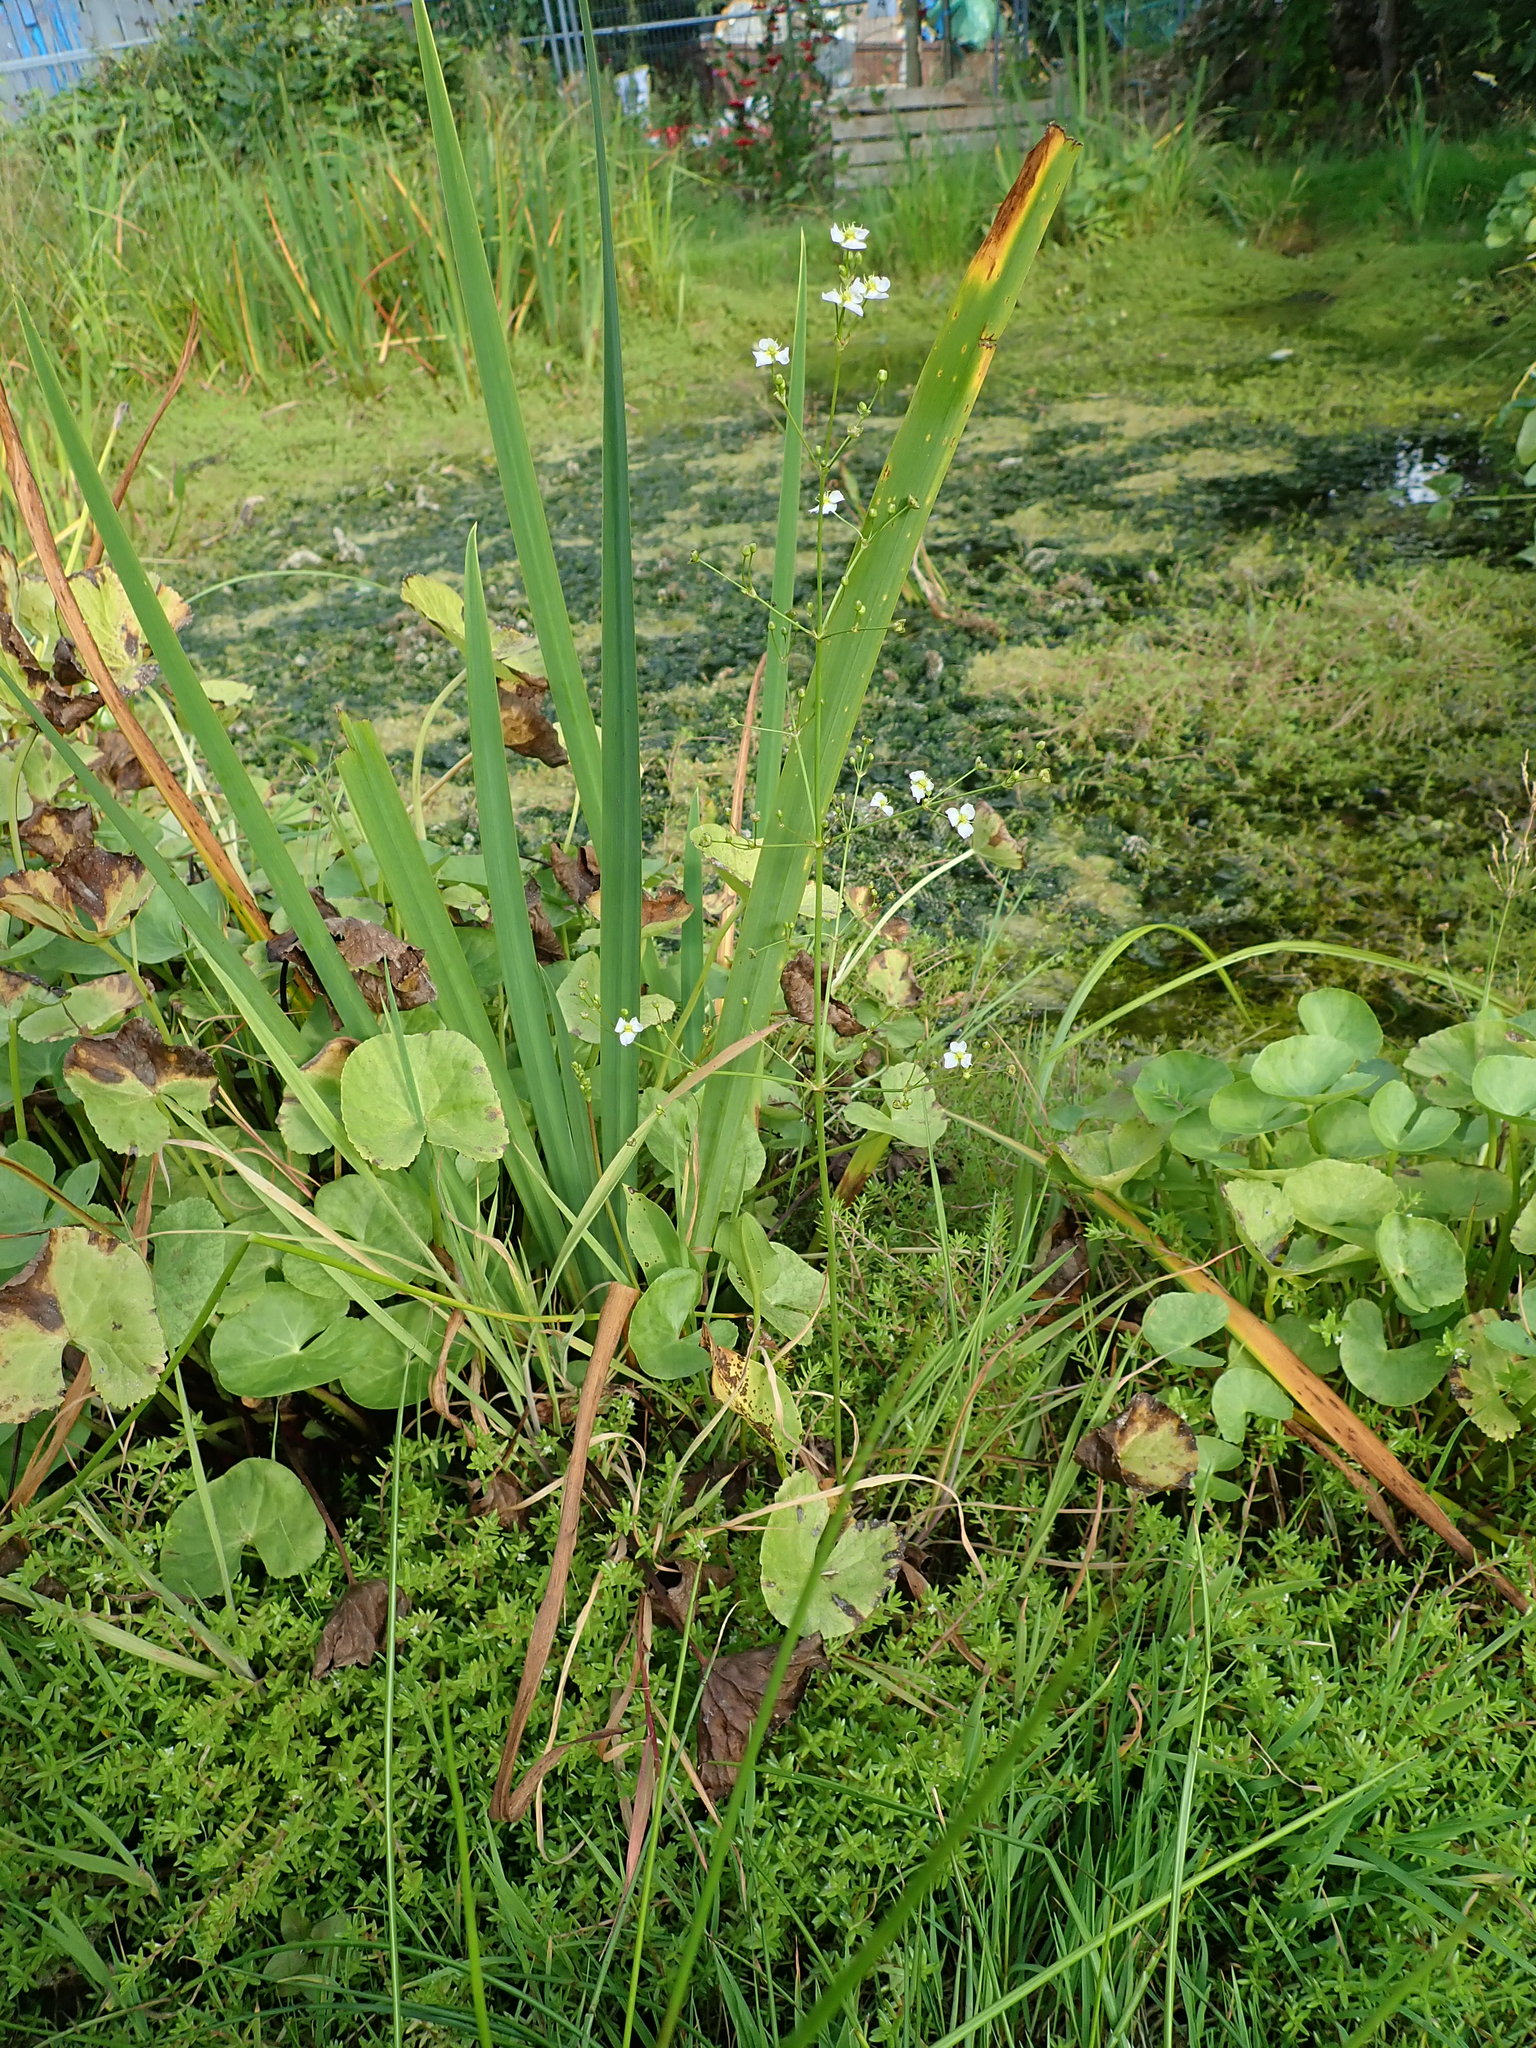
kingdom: Plantae
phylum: Tracheophyta
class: Liliopsida
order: Alismatales
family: Alismataceae
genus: Alisma
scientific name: Alisma plantago-aquatica
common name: Water-plantain
